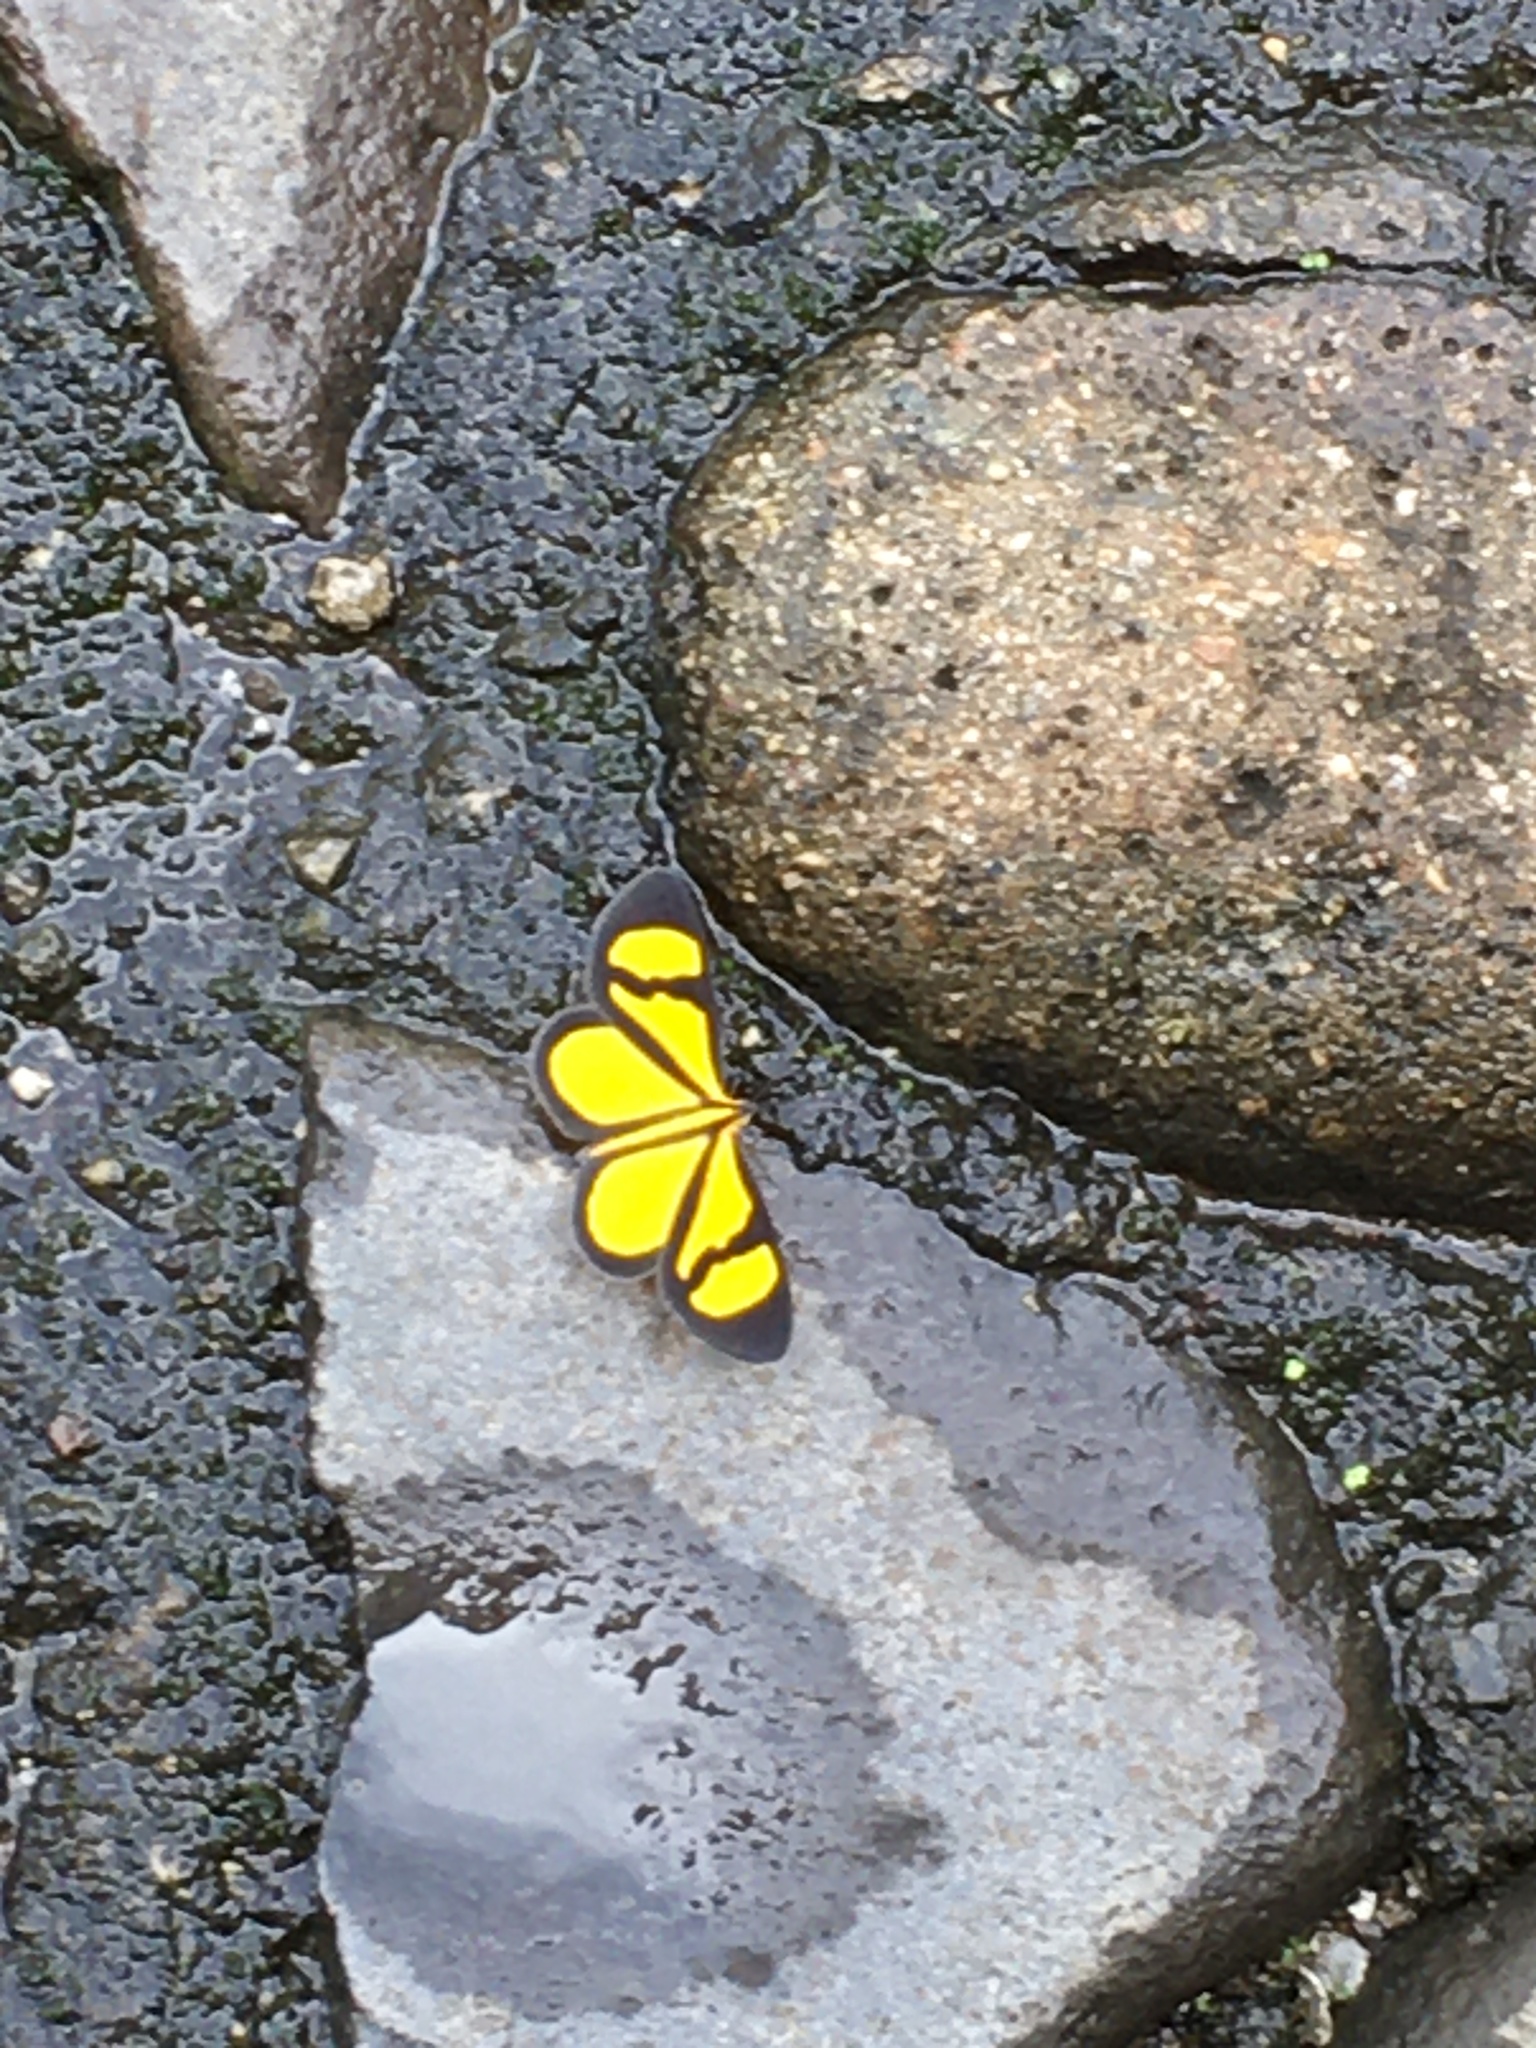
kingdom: Animalia
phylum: Arthropoda
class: Insecta
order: Lepidoptera
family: Geometridae
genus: Smicropus
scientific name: Smicropus laeta
